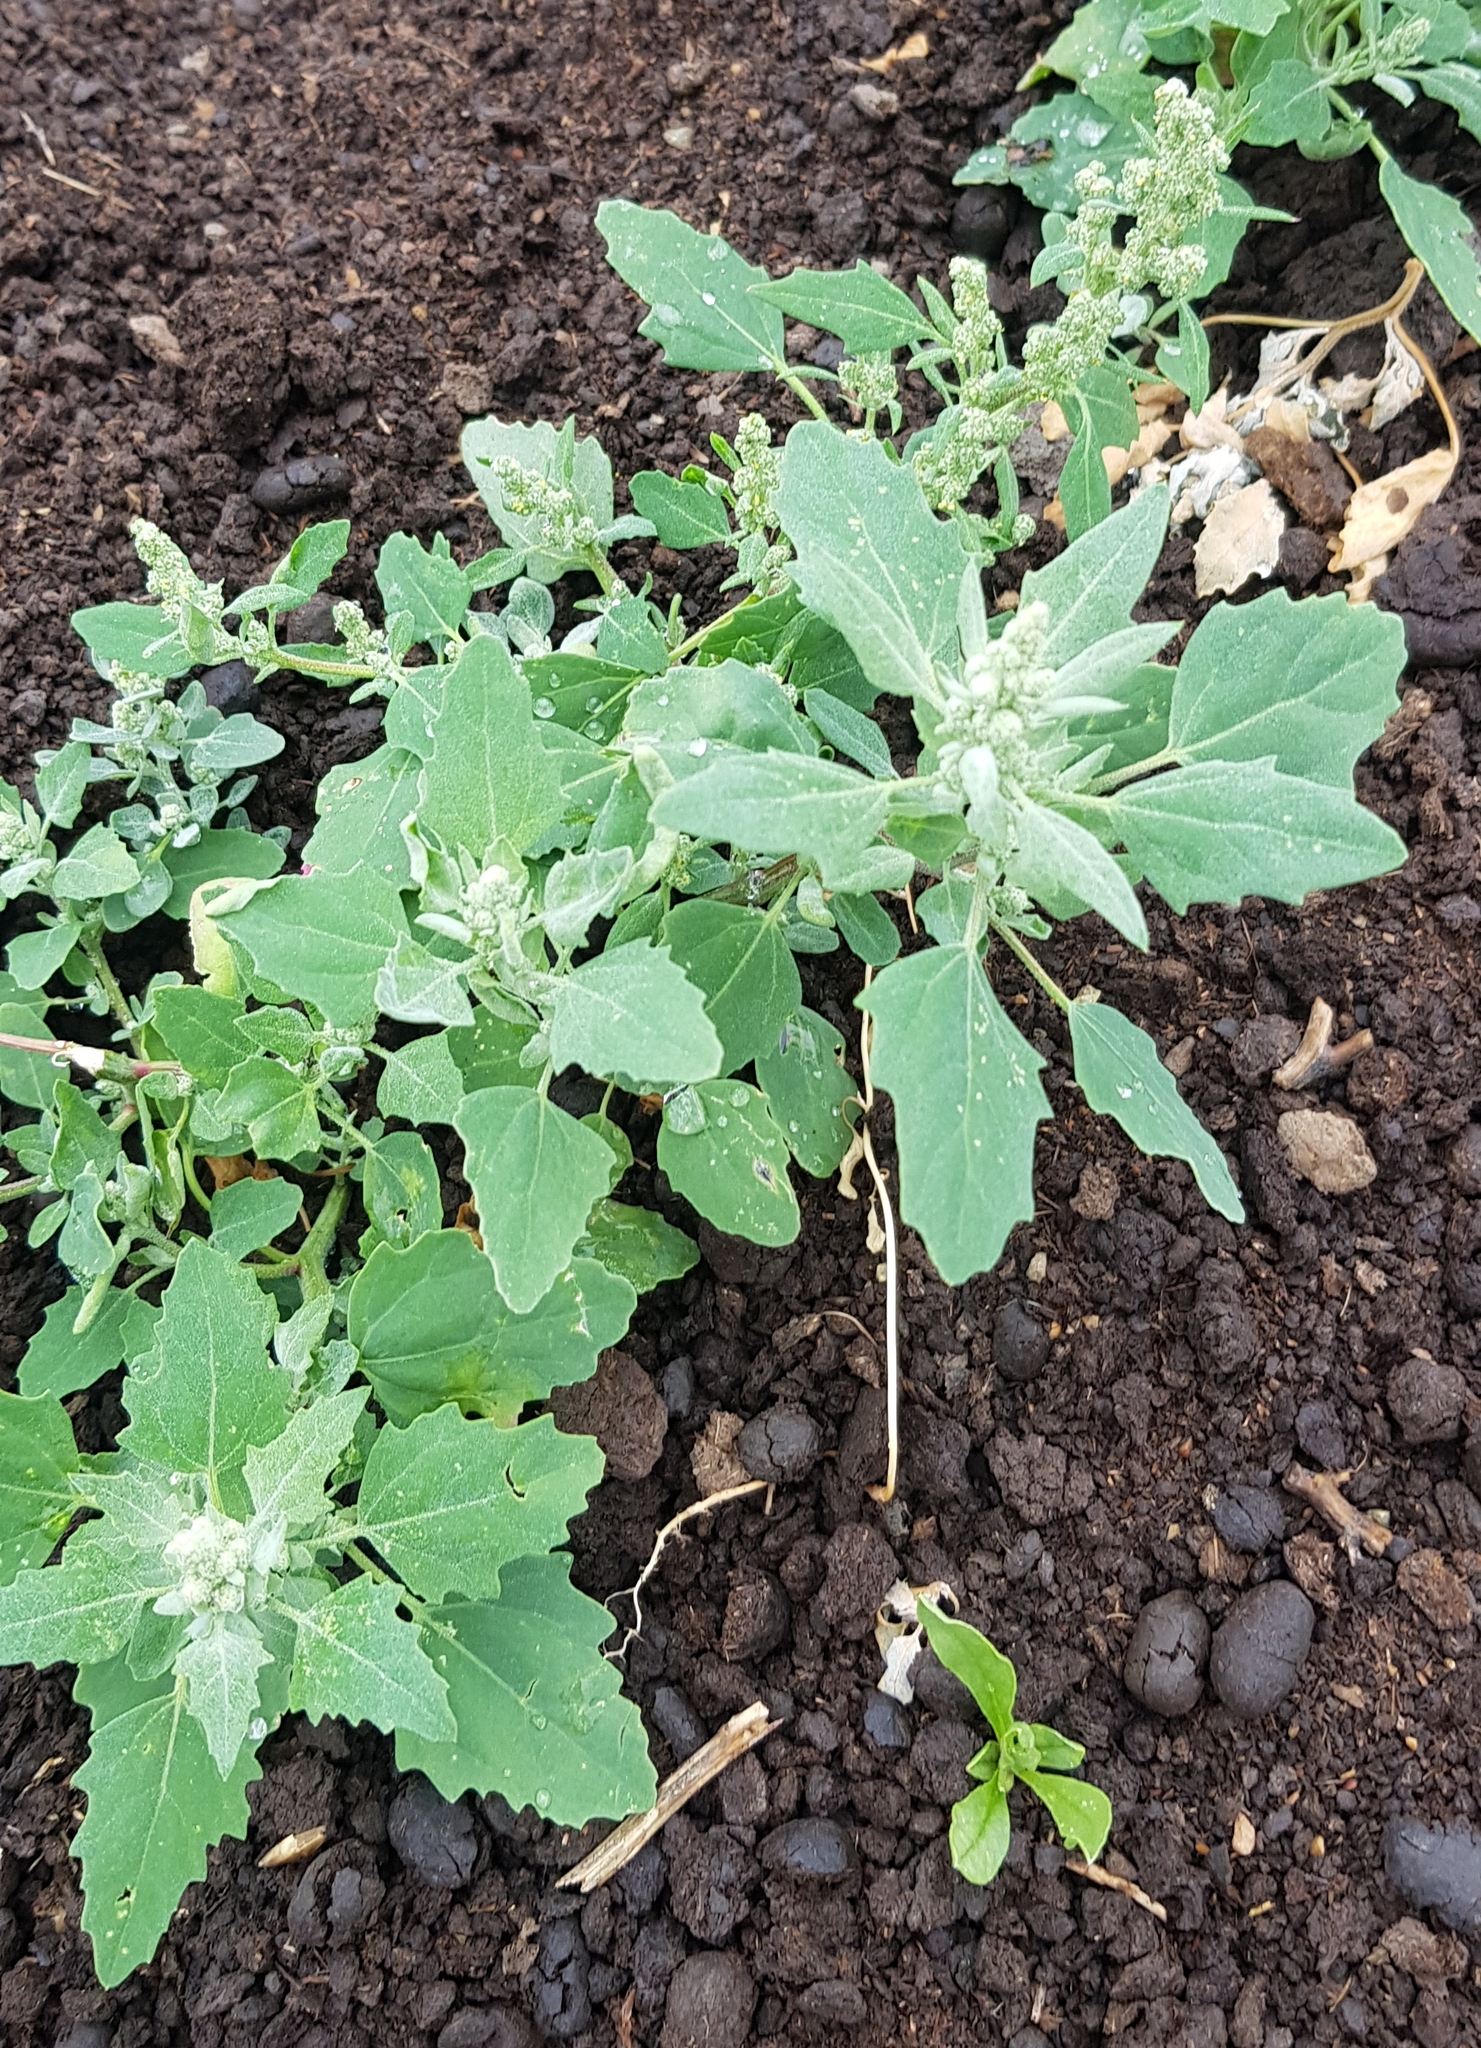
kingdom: Plantae
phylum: Tracheophyta
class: Magnoliopsida
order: Caryophyllales
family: Amaranthaceae
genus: Chenopodium
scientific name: Chenopodium album
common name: Fat-hen
